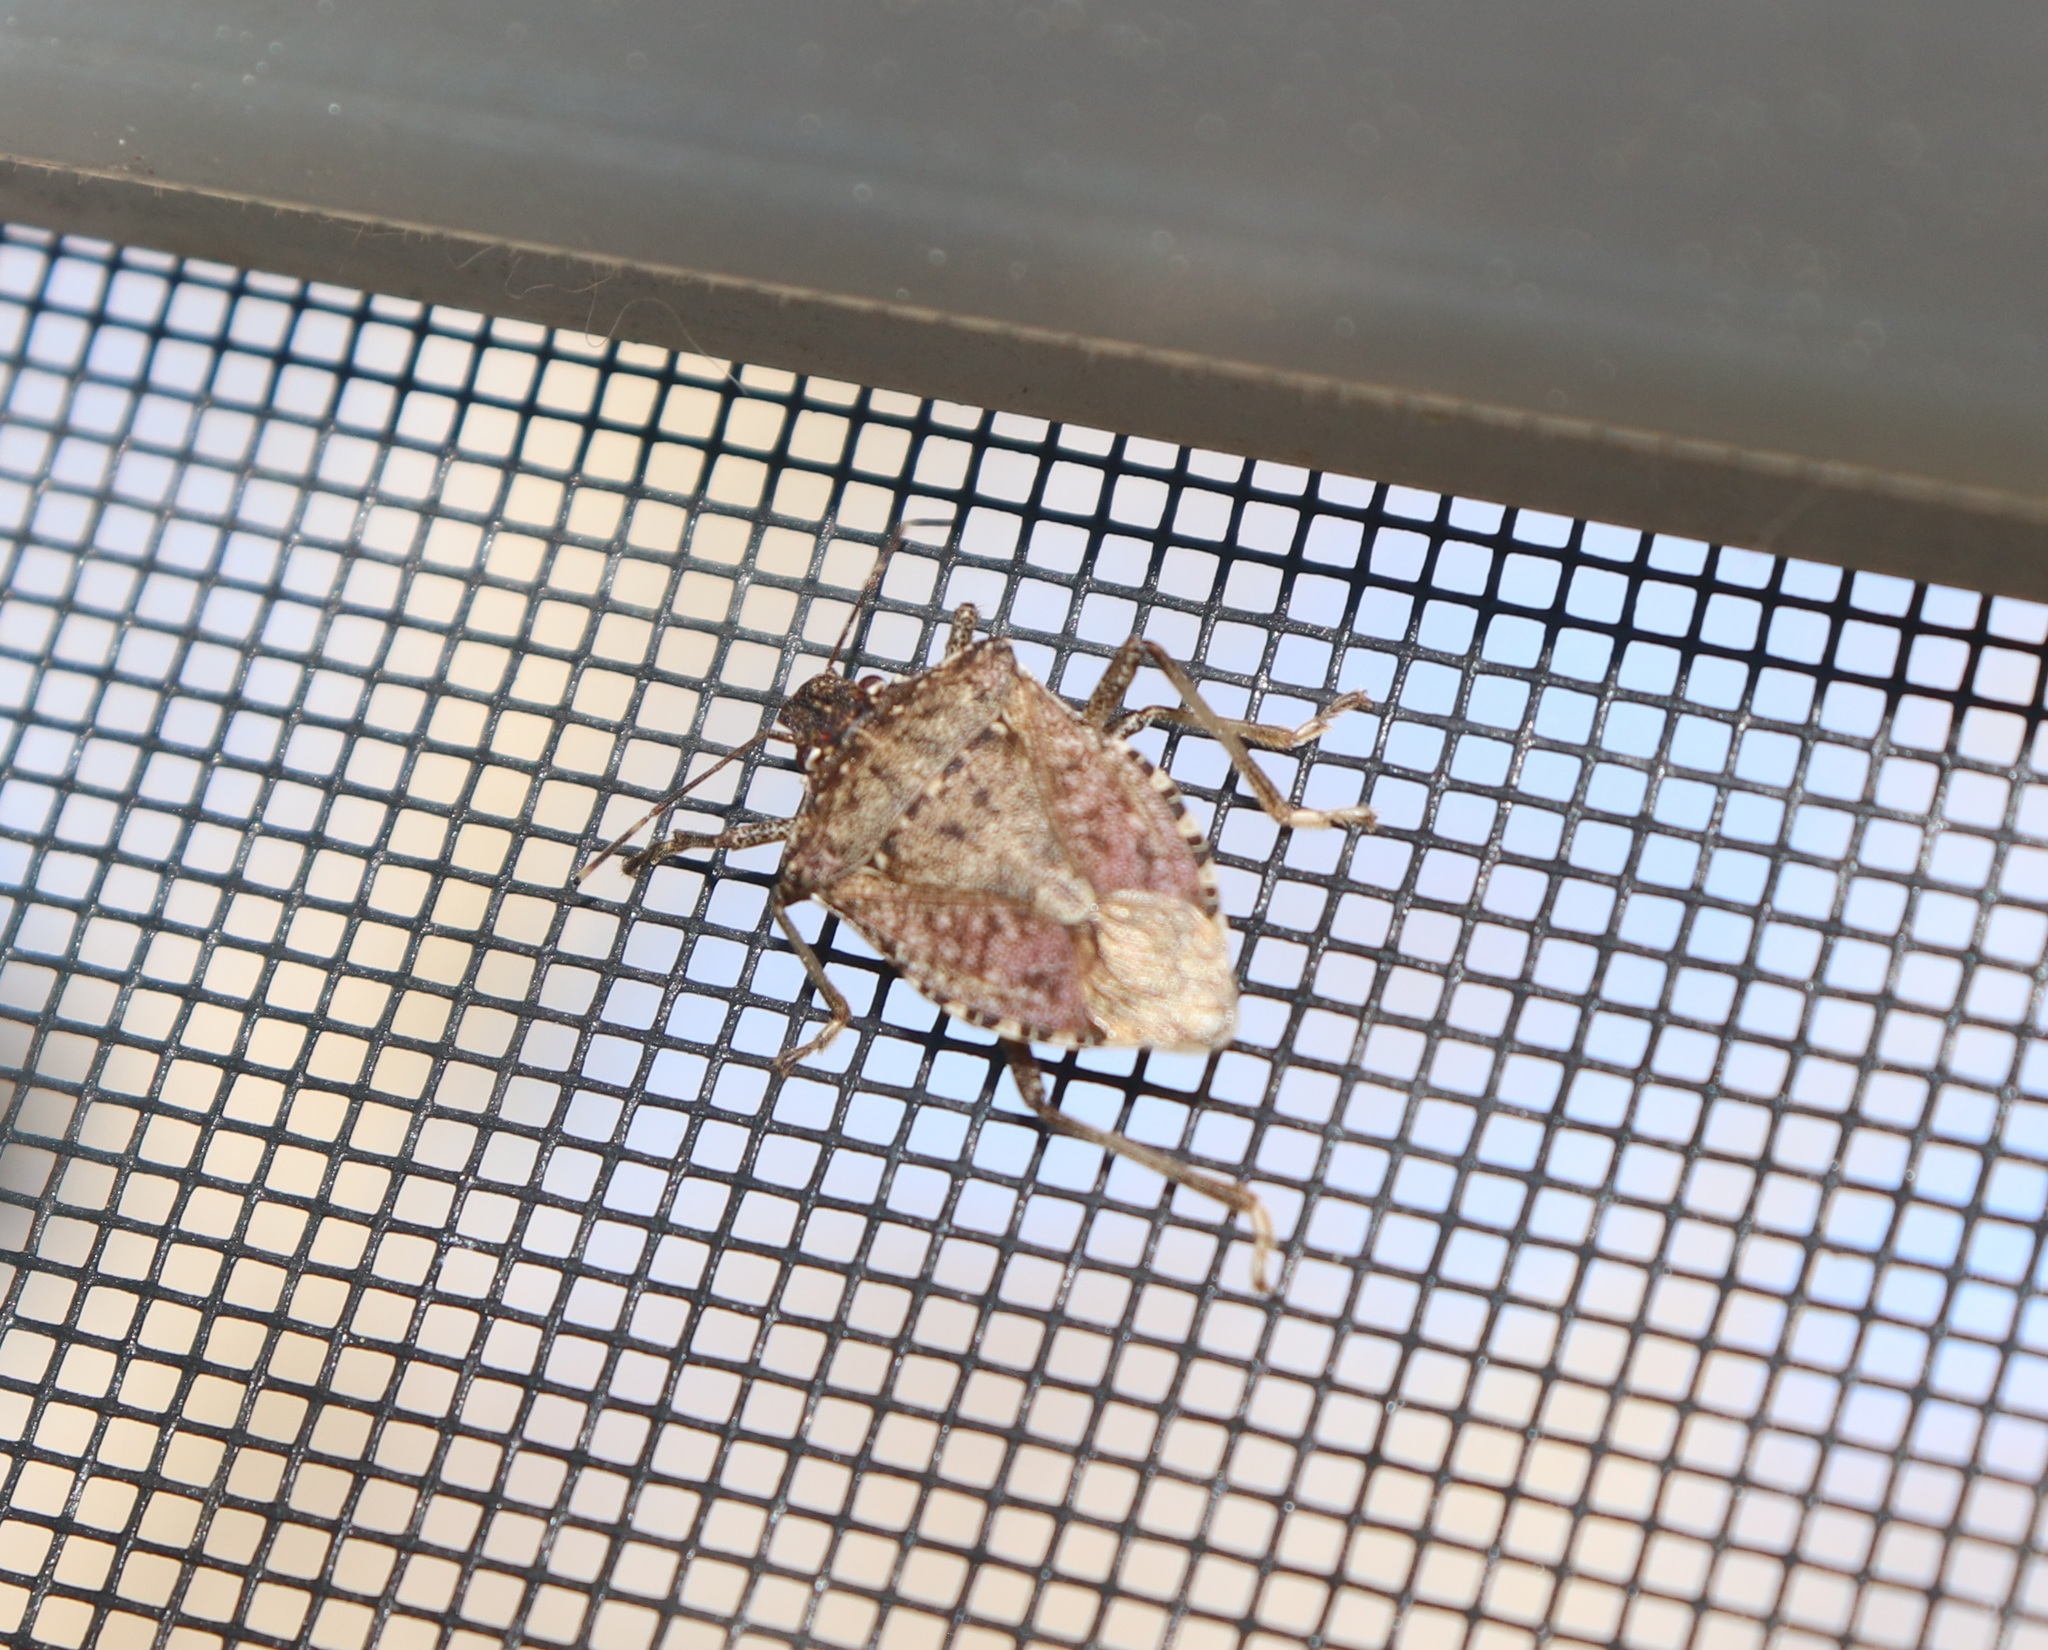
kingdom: Animalia
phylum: Arthropoda
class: Insecta
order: Hemiptera
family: Pentatomidae
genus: Halyomorpha
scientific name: Halyomorpha halys
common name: Brown marmorated stink bug
